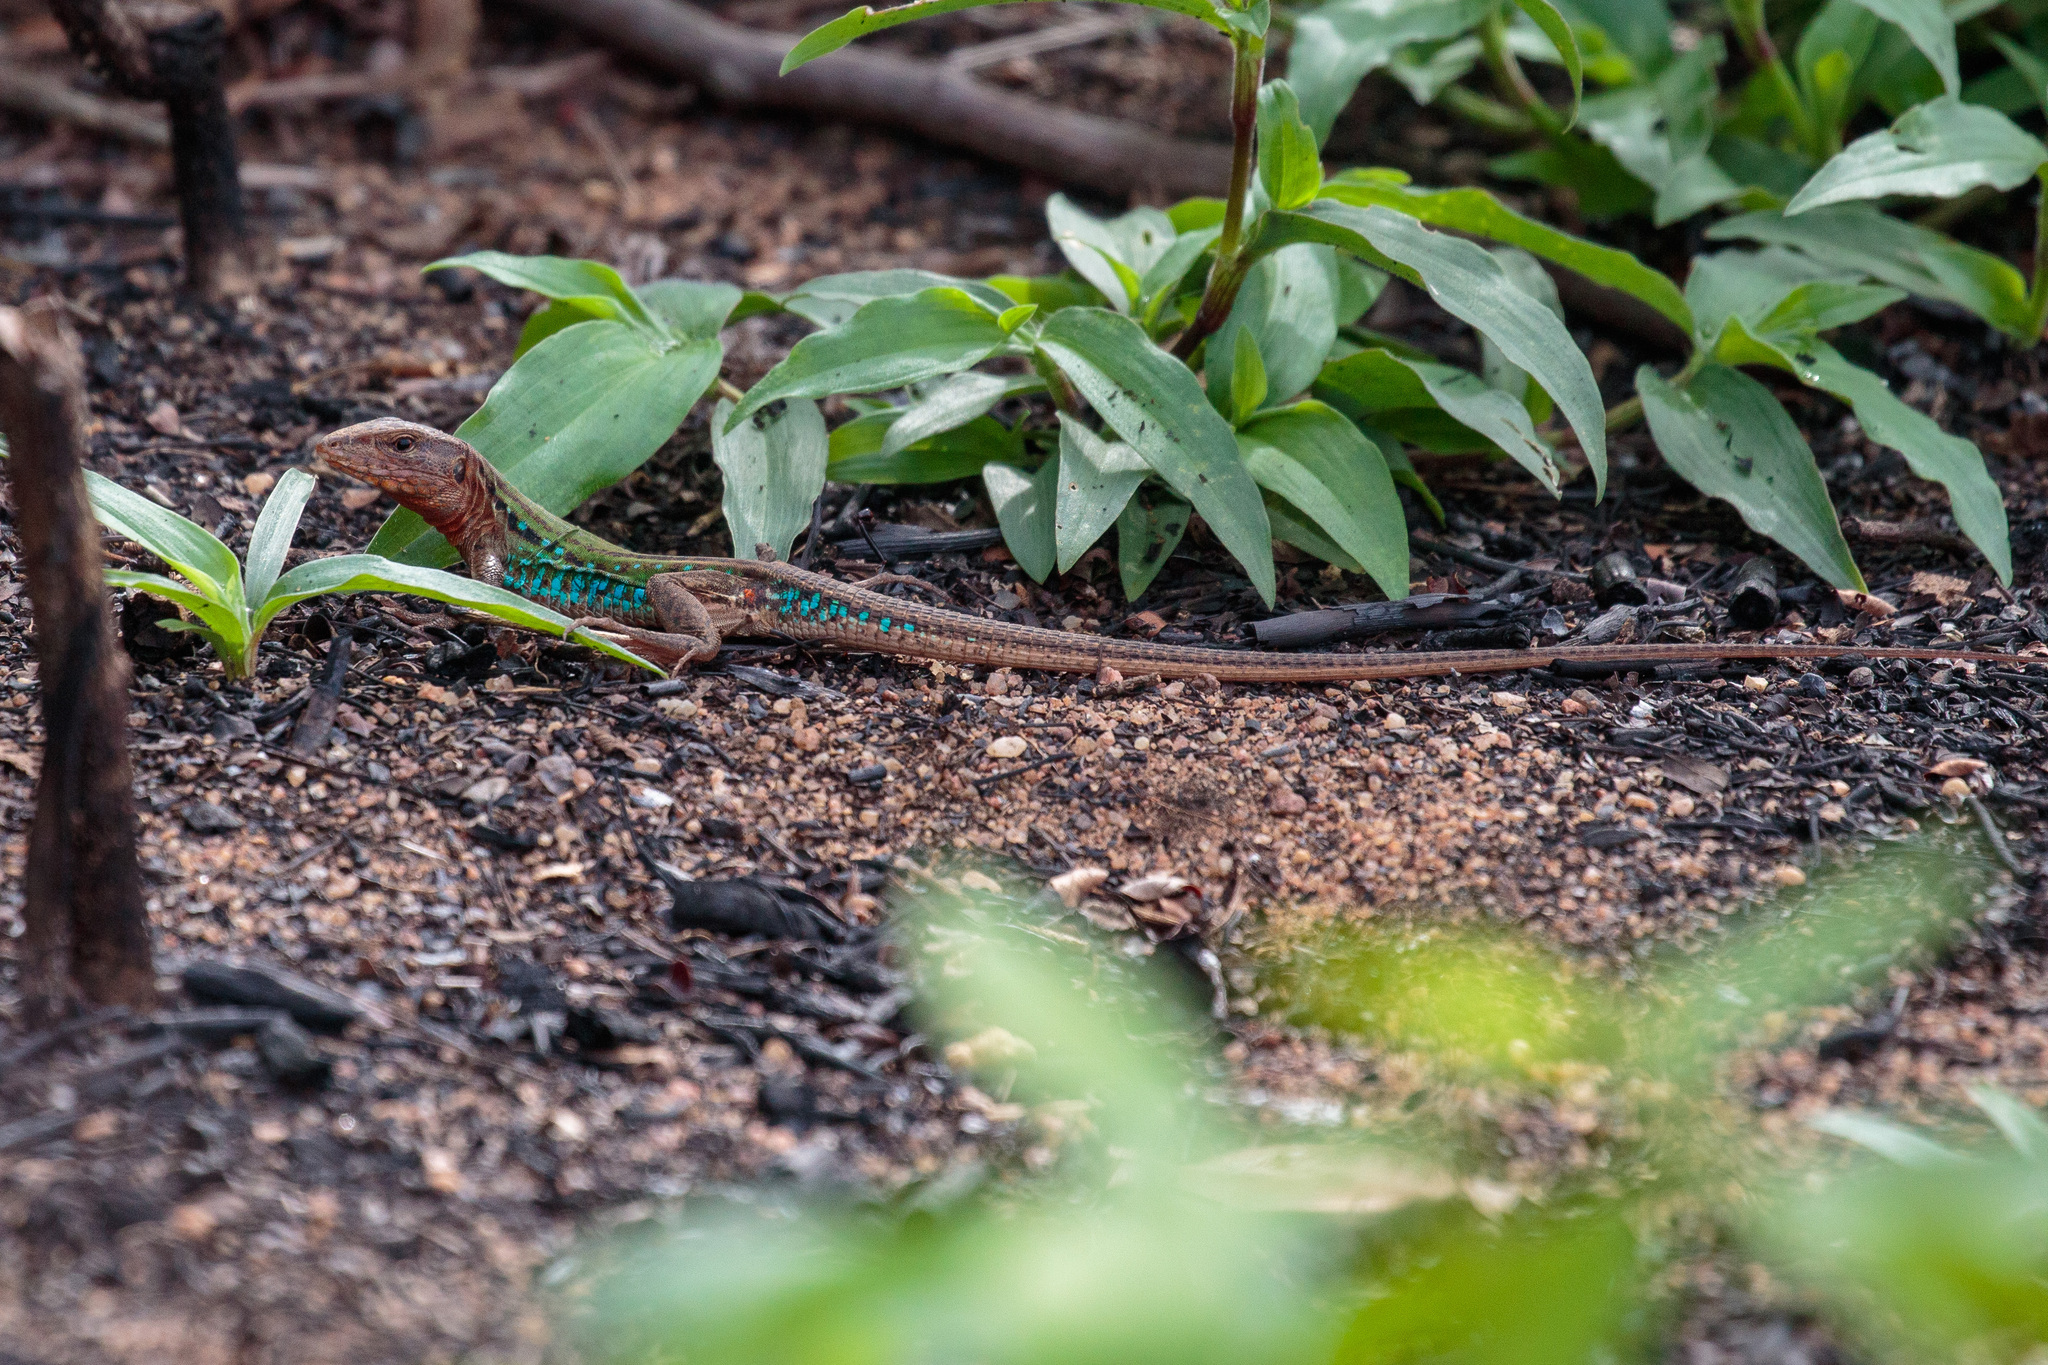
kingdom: Animalia
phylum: Chordata
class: Squamata
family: Teiidae
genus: Ameivula
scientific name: Ameivula pyrrhogularis
